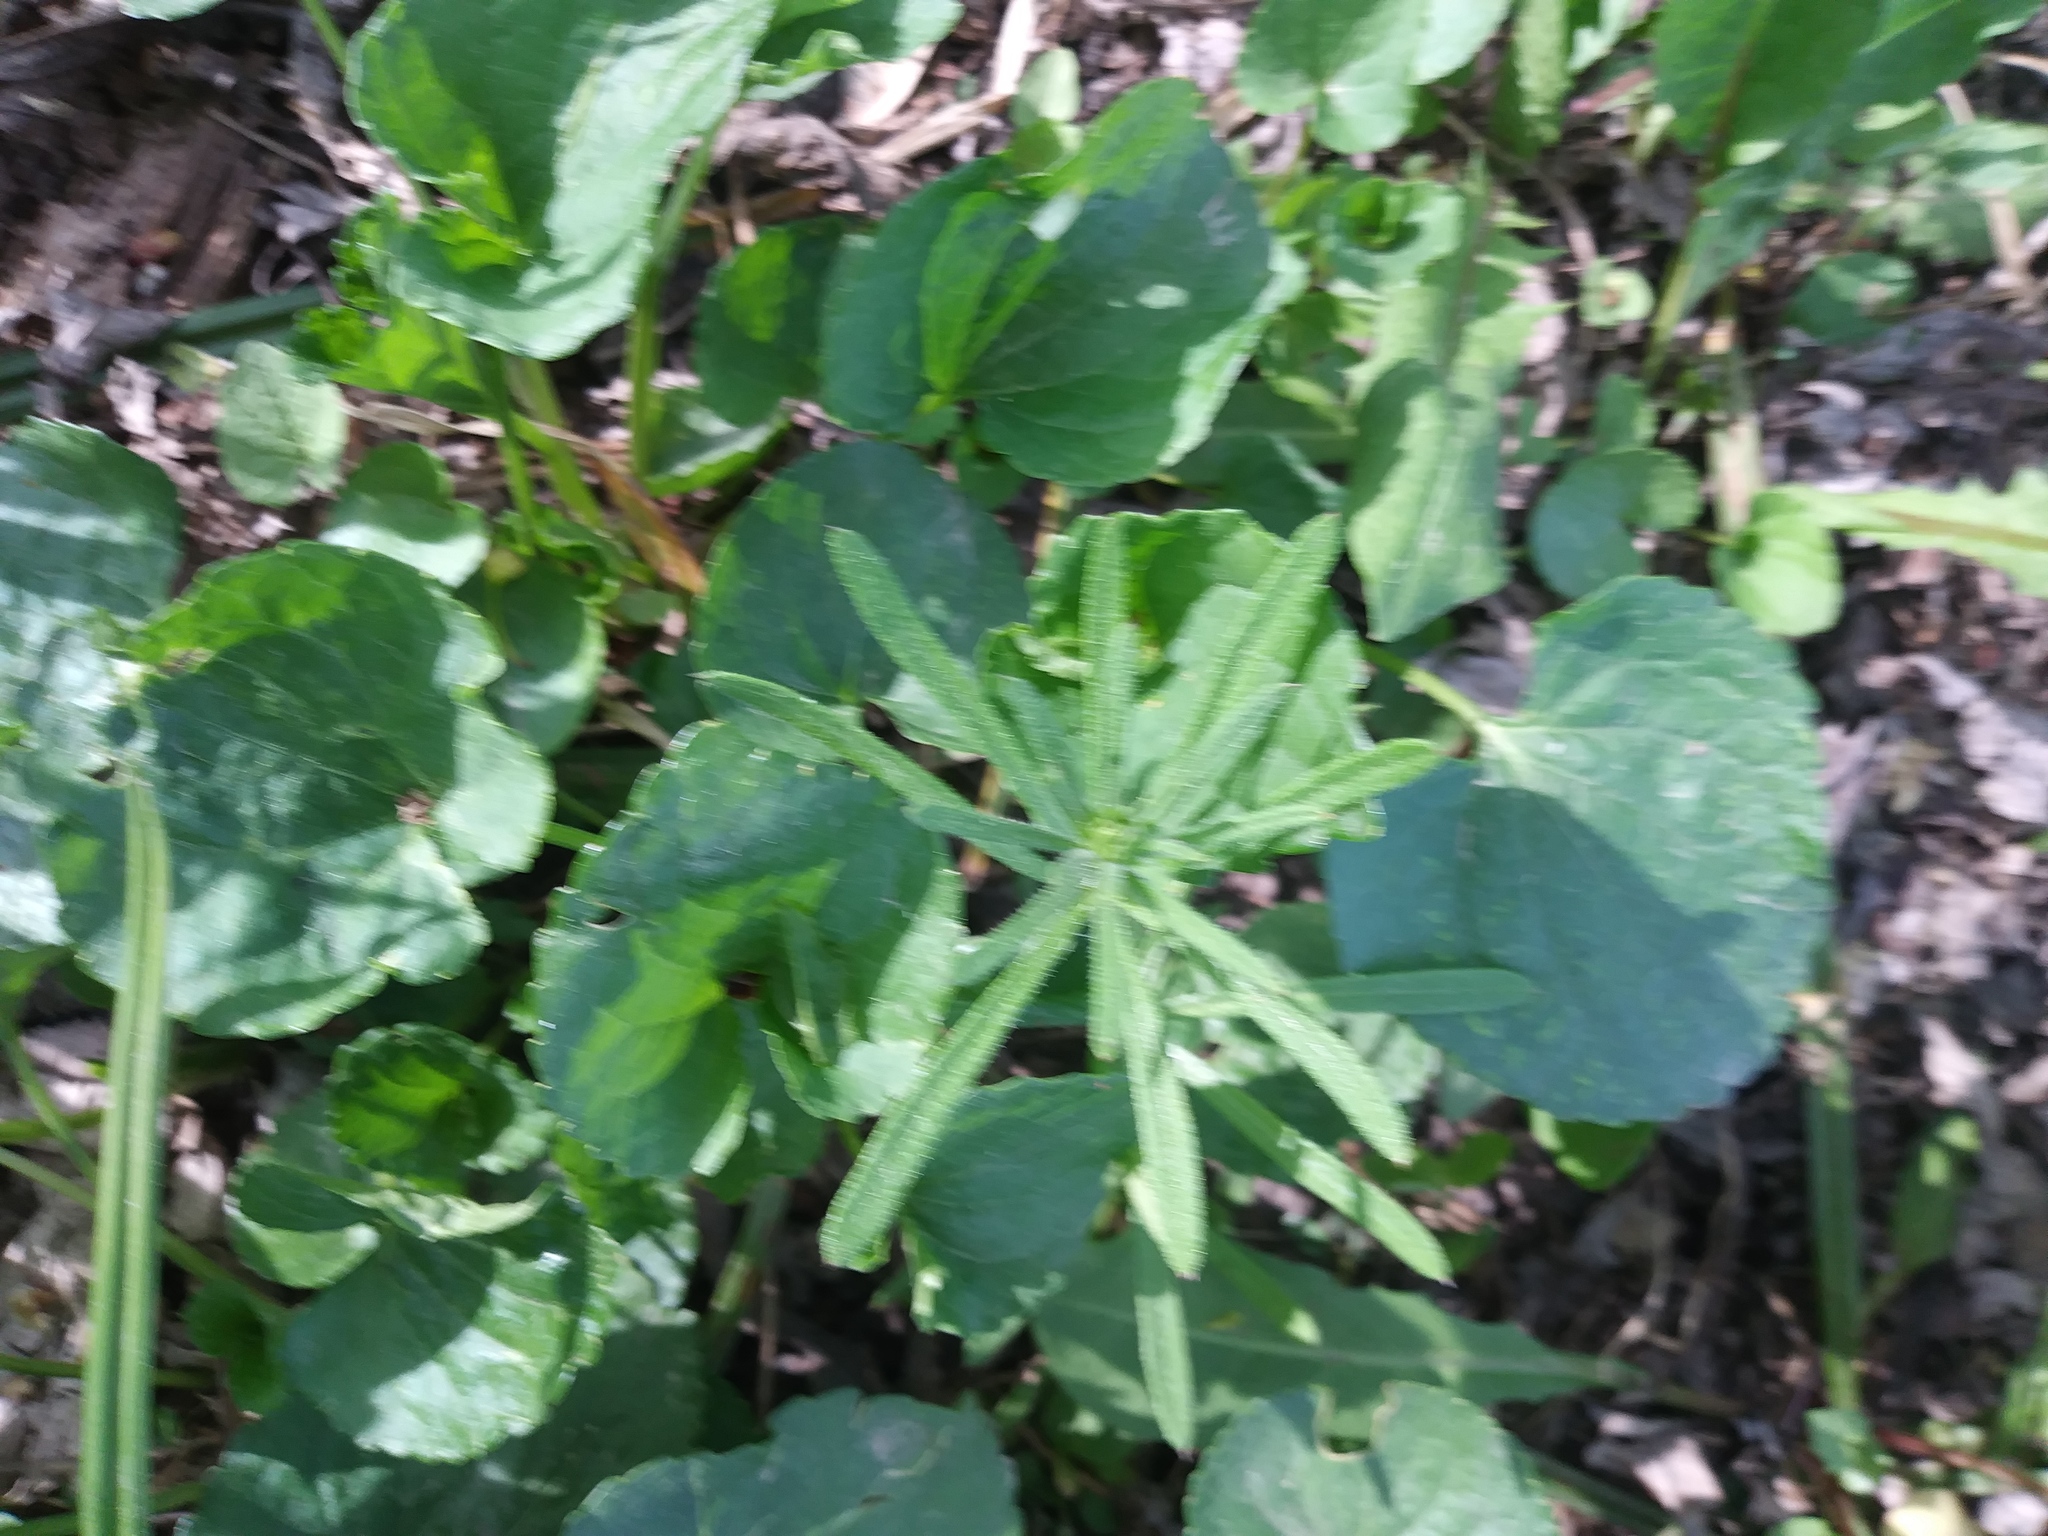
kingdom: Plantae
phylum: Tracheophyta
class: Magnoliopsida
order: Gentianales
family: Rubiaceae
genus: Galium
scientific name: Galium aparine
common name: Cleavers
